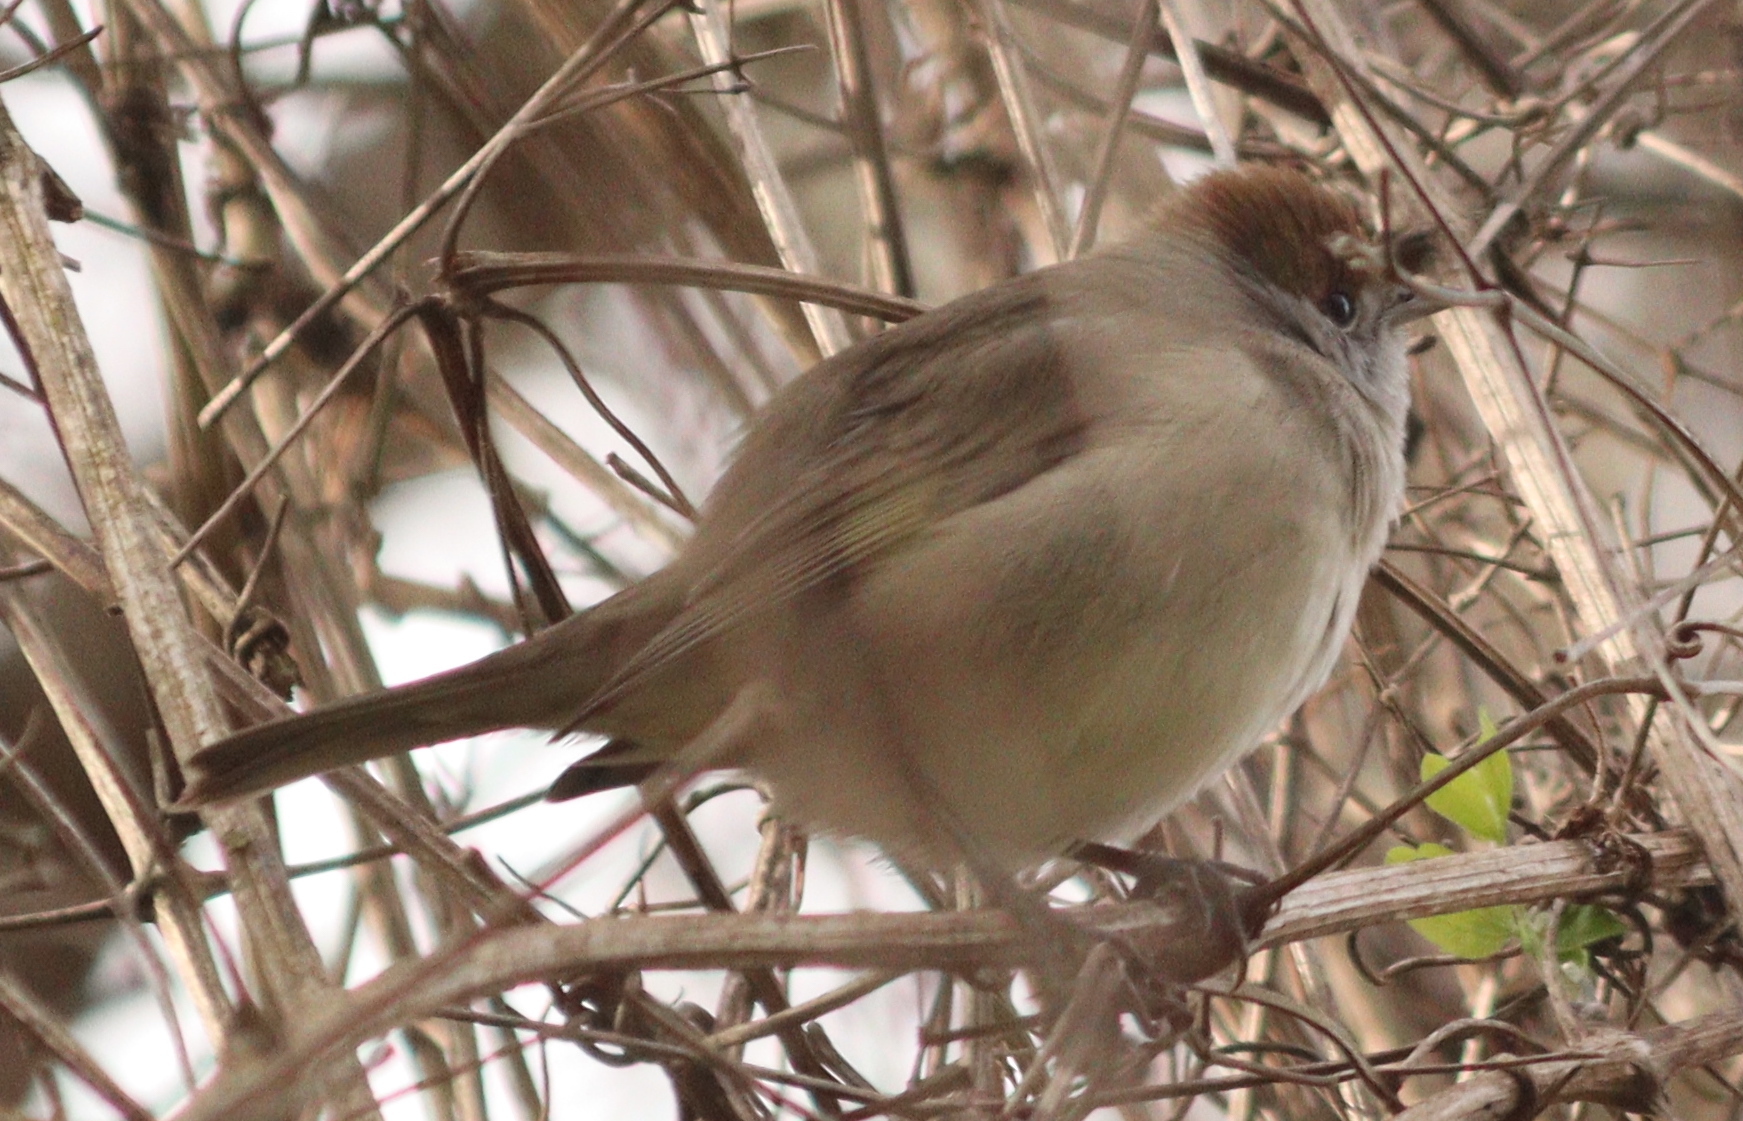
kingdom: Animalia
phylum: Chordata
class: Aves
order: Passeriformes
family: Sylviidae
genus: Sylvia
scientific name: Sylvia atricapilla
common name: Eurasian blackcap
